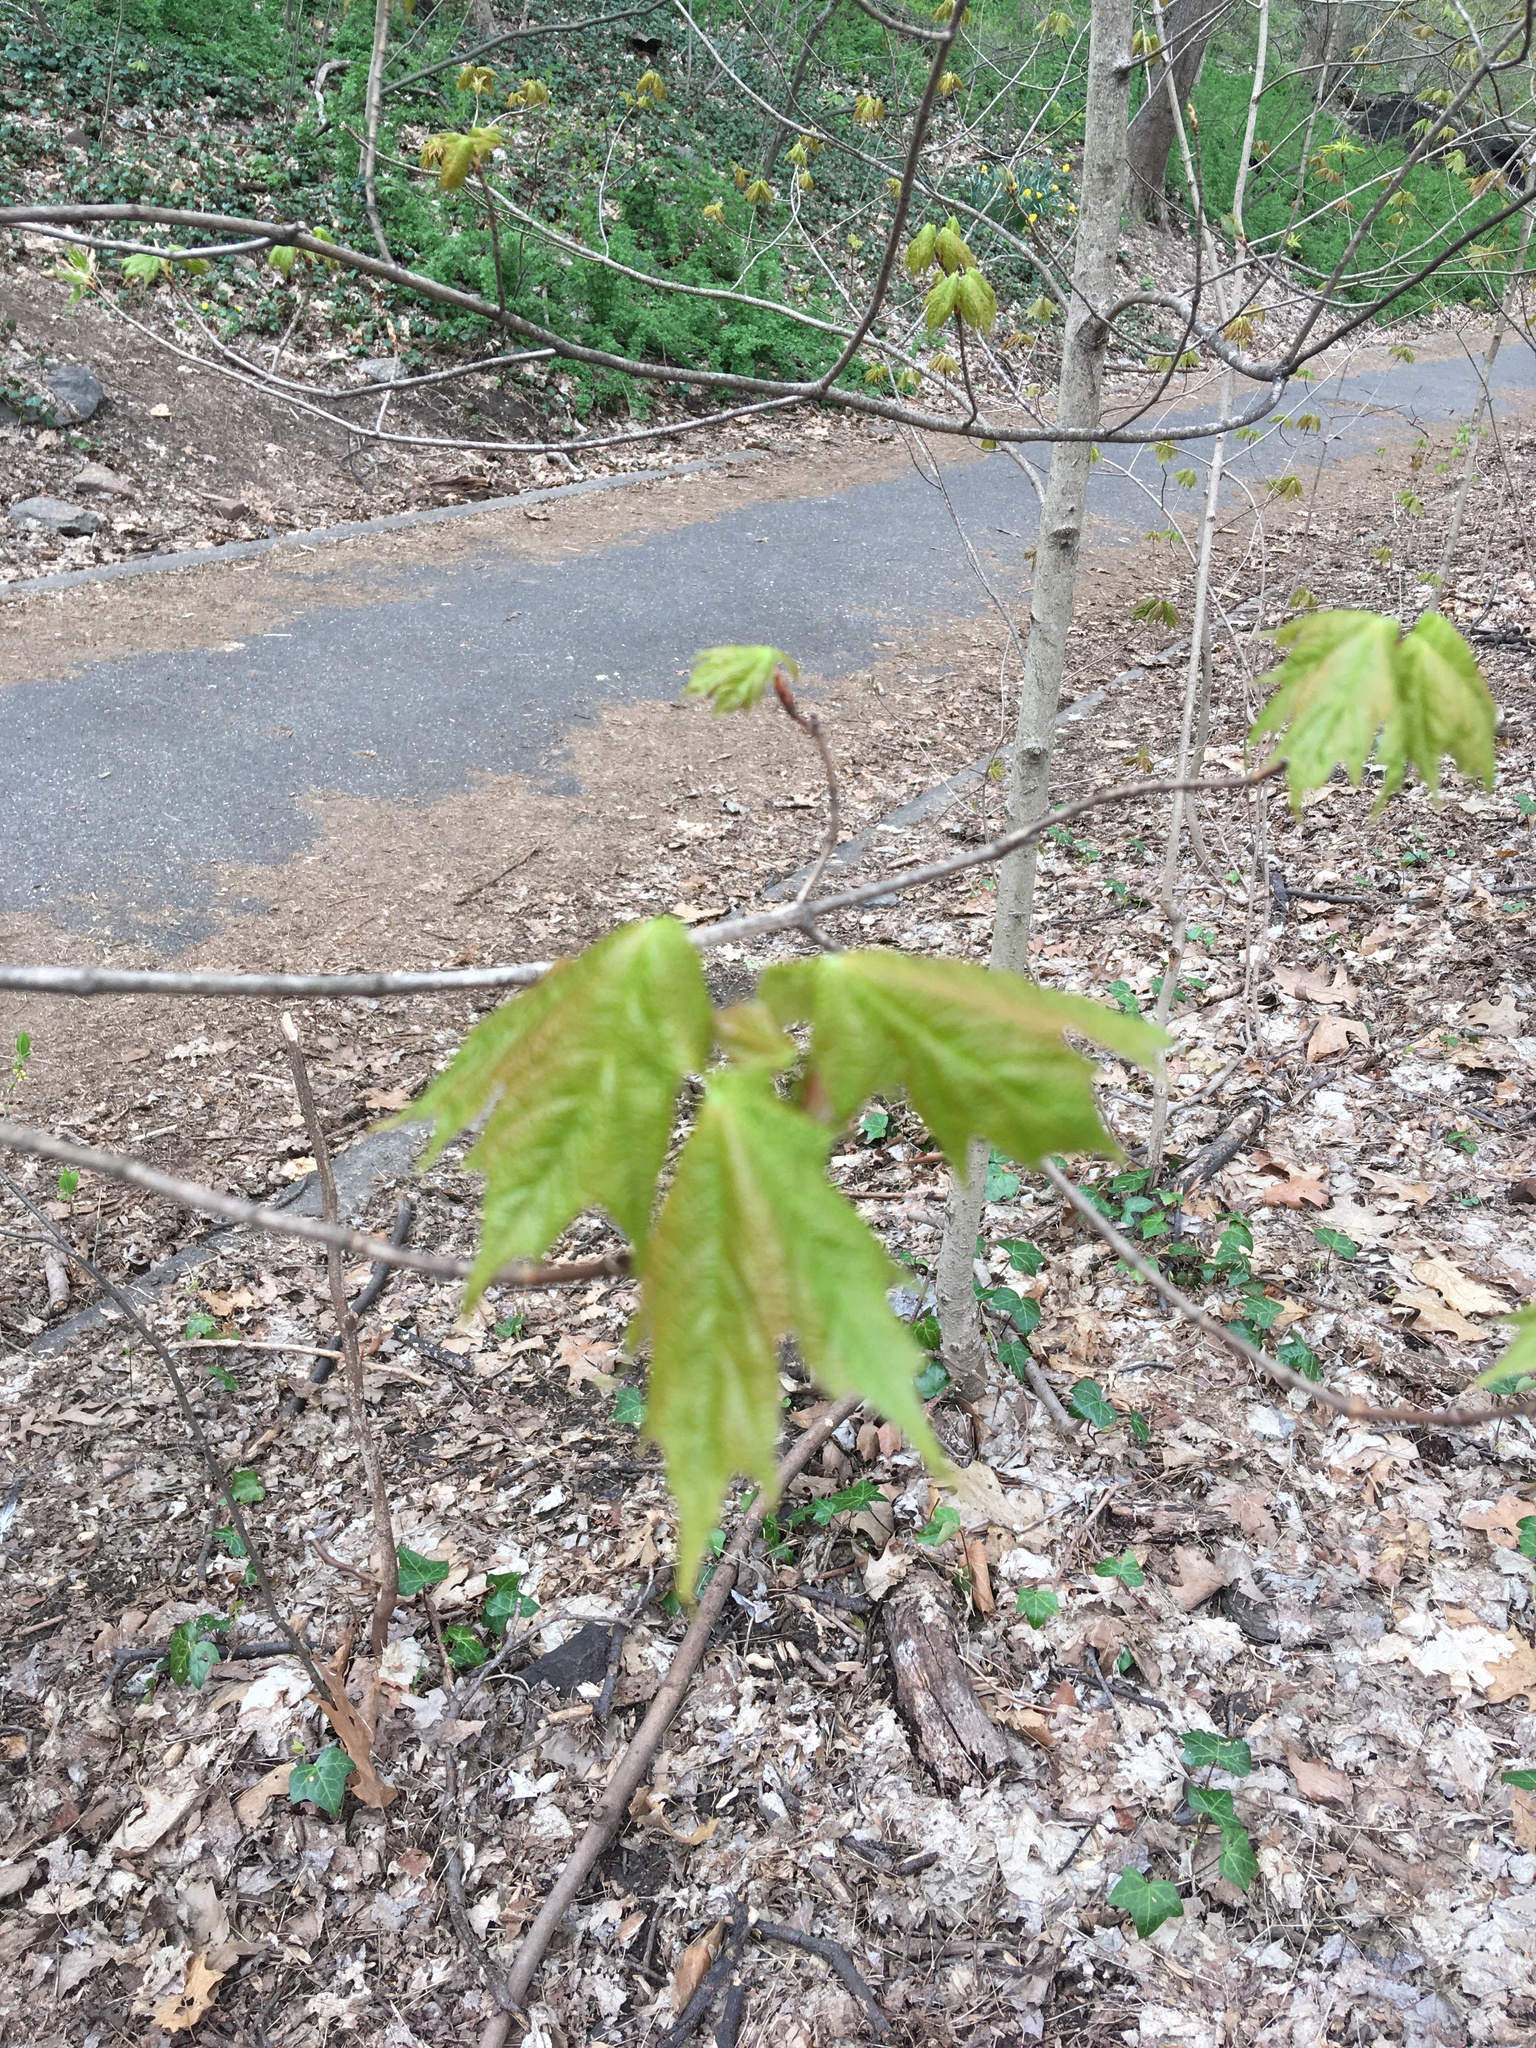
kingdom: Plantae
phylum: Tracheophyta
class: Magnoliopsida
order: Sapindales
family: Sapindaceae
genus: Acer
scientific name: Acer saccharum
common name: Sugar maple
